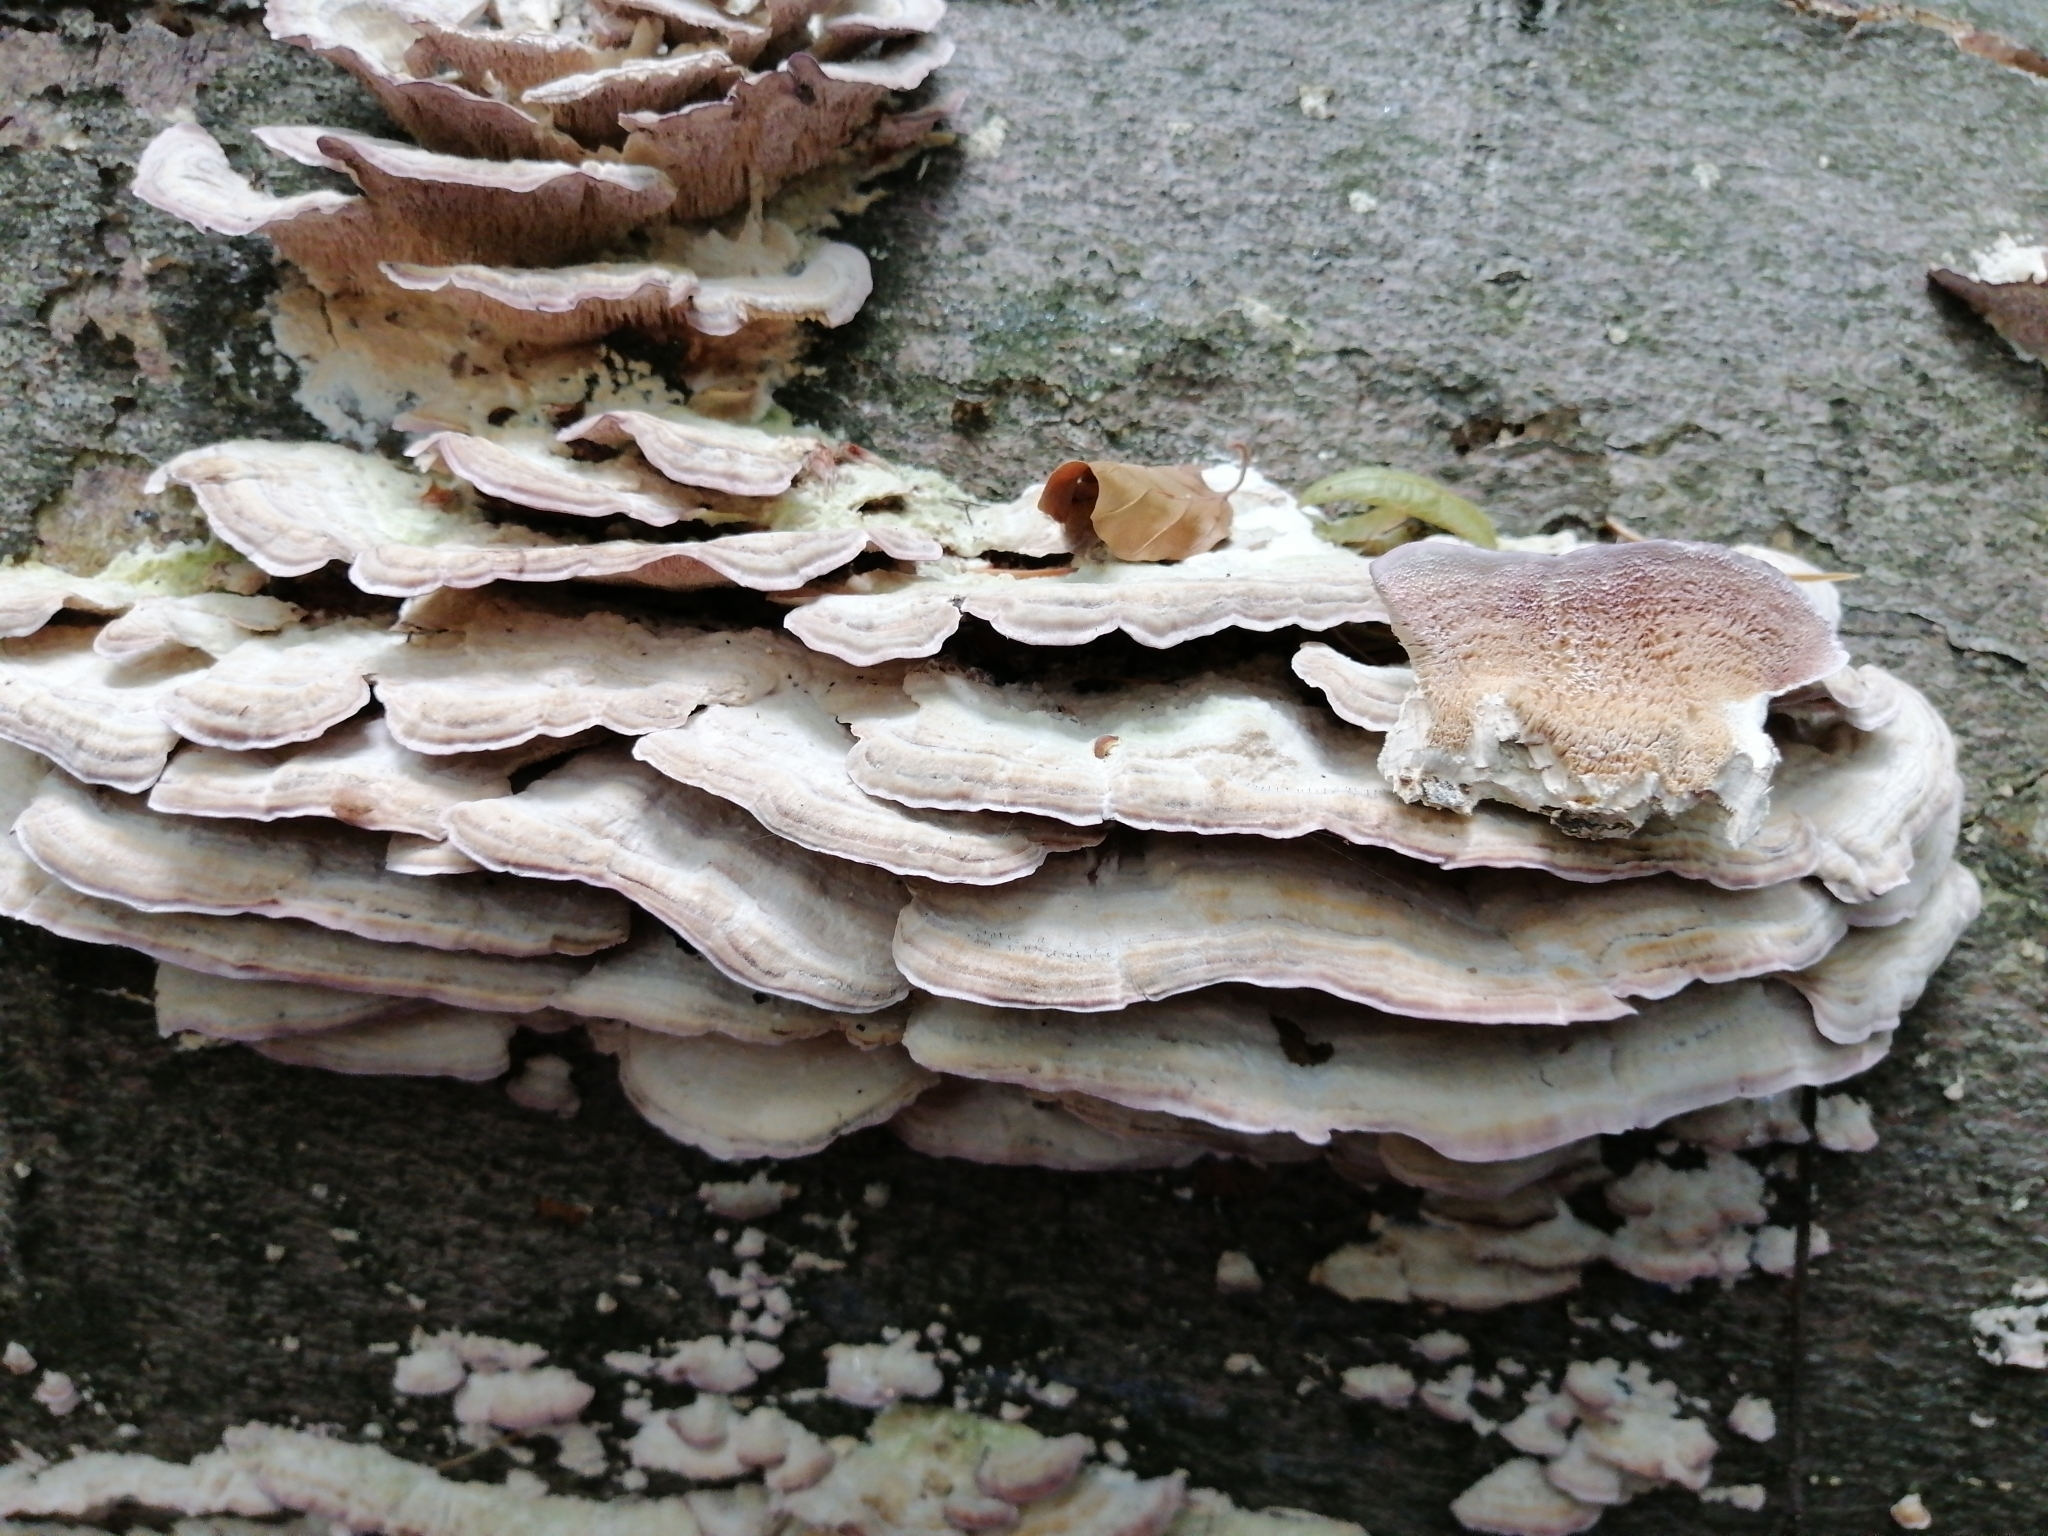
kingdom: Fungi
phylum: Basidiomycota
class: Agaricomycetes
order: Hymenochaetales
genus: Trichaptum
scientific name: Trichaptum biforme
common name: Violet-toothed polypore
